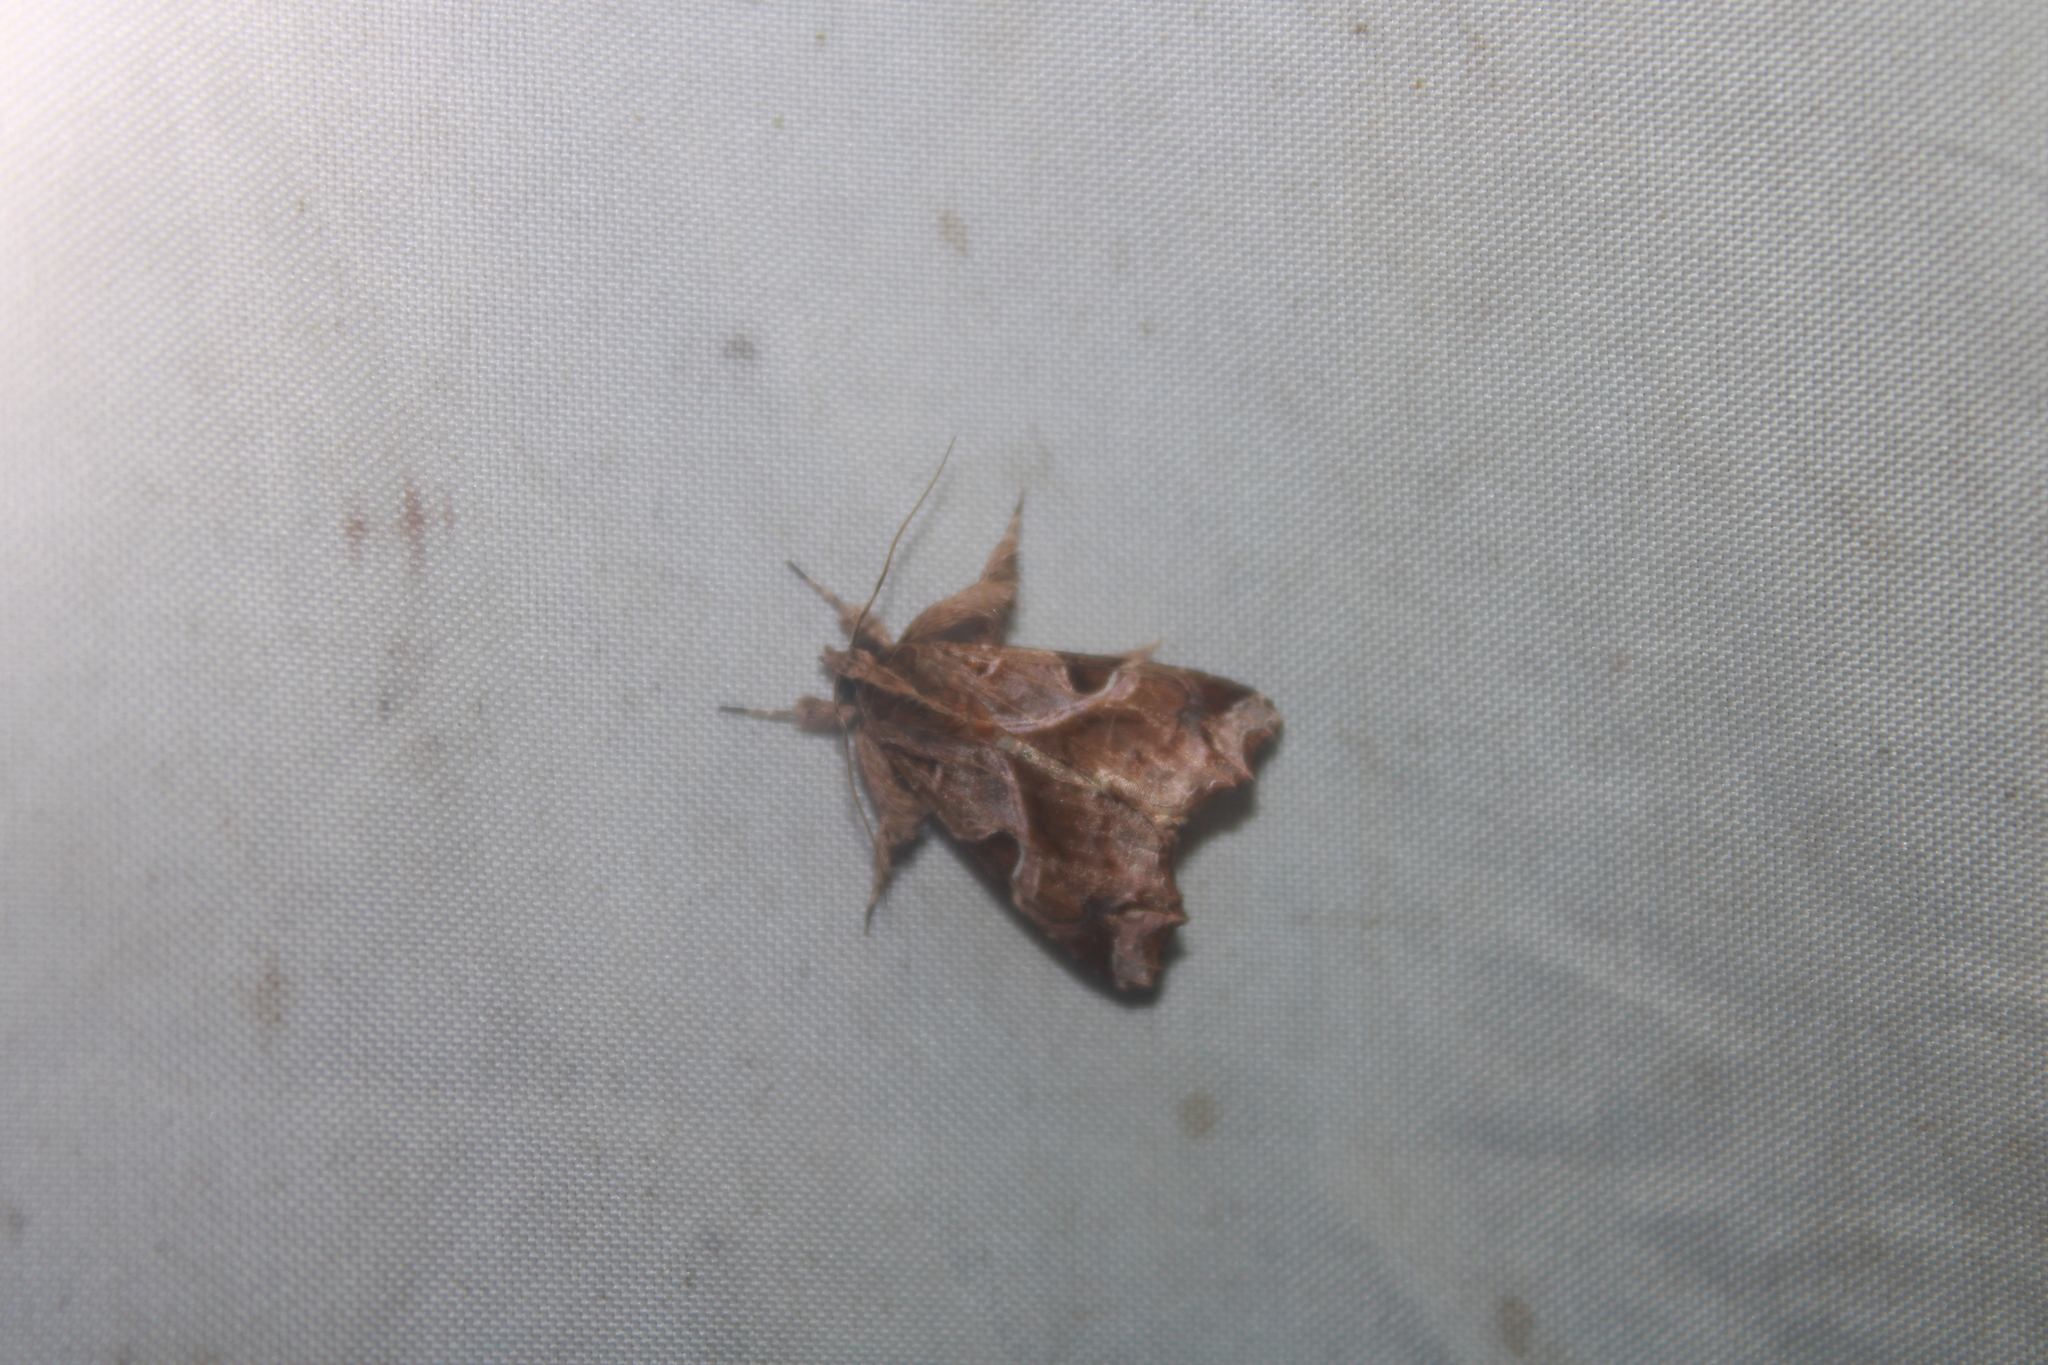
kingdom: Animalia
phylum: Arthropoda
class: Insecta
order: Lepidoptera
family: Noctuidae
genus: Callopistria
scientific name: Callopistria floridensis
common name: Florida fern moth
